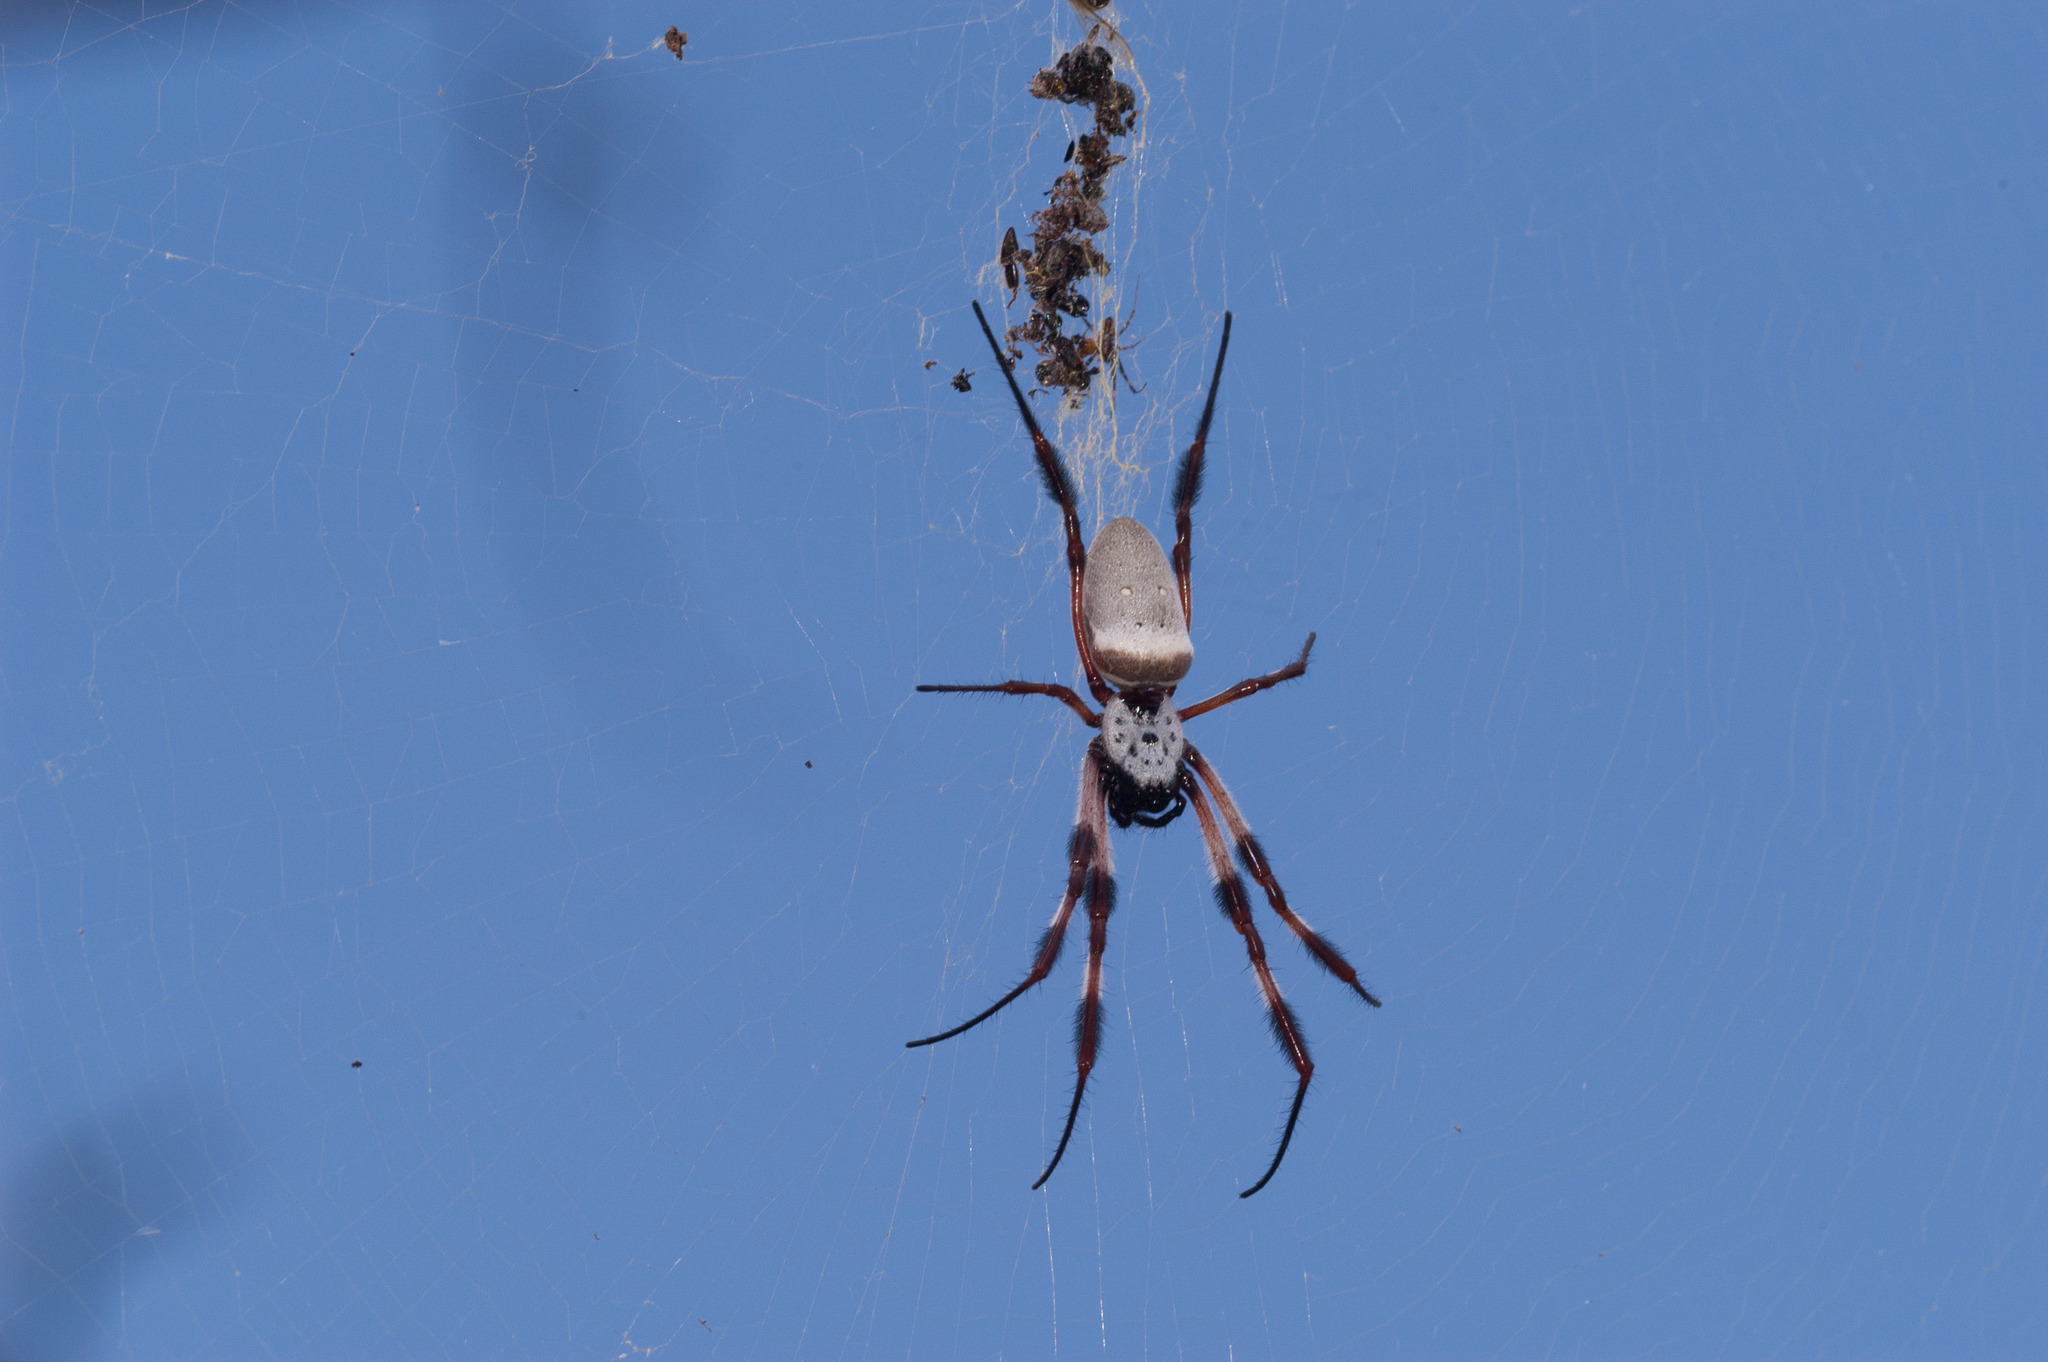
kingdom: Animalia
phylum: Arthropoda
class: Arachnida
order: Araneae
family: Araneidae
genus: Trichonephila
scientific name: Trichonephila edulis
